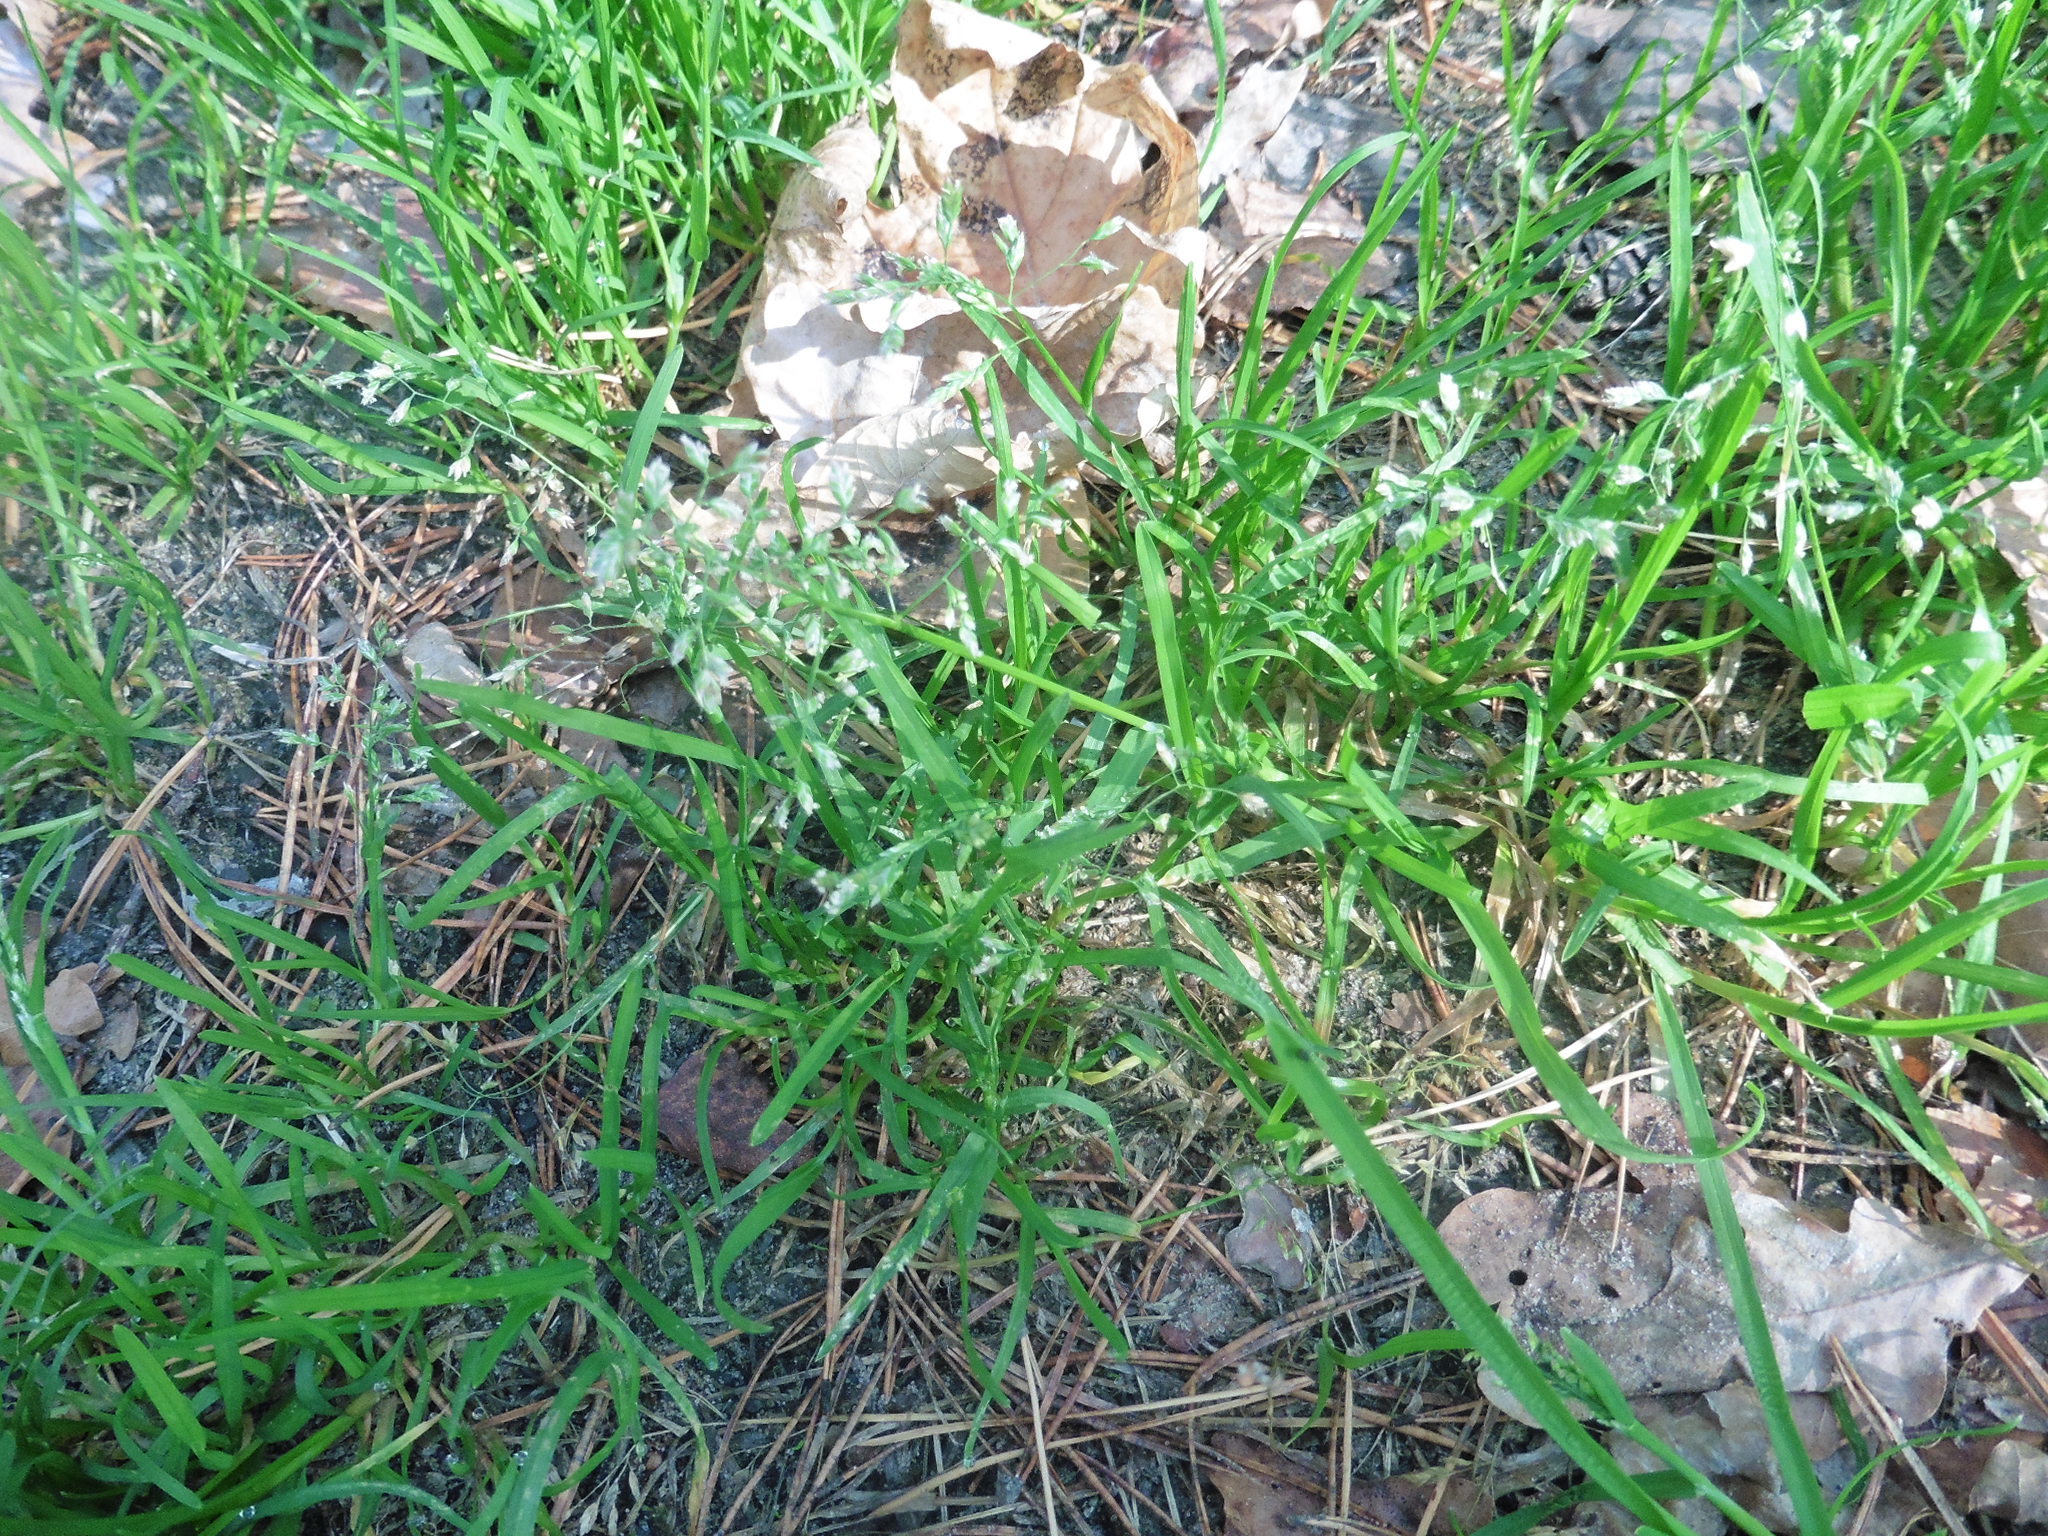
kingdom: Plantae
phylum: Tracheophyta
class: Liliopsida
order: Poales
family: Poaceae
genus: Poa
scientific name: Poa annua
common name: Annual bluegrass
